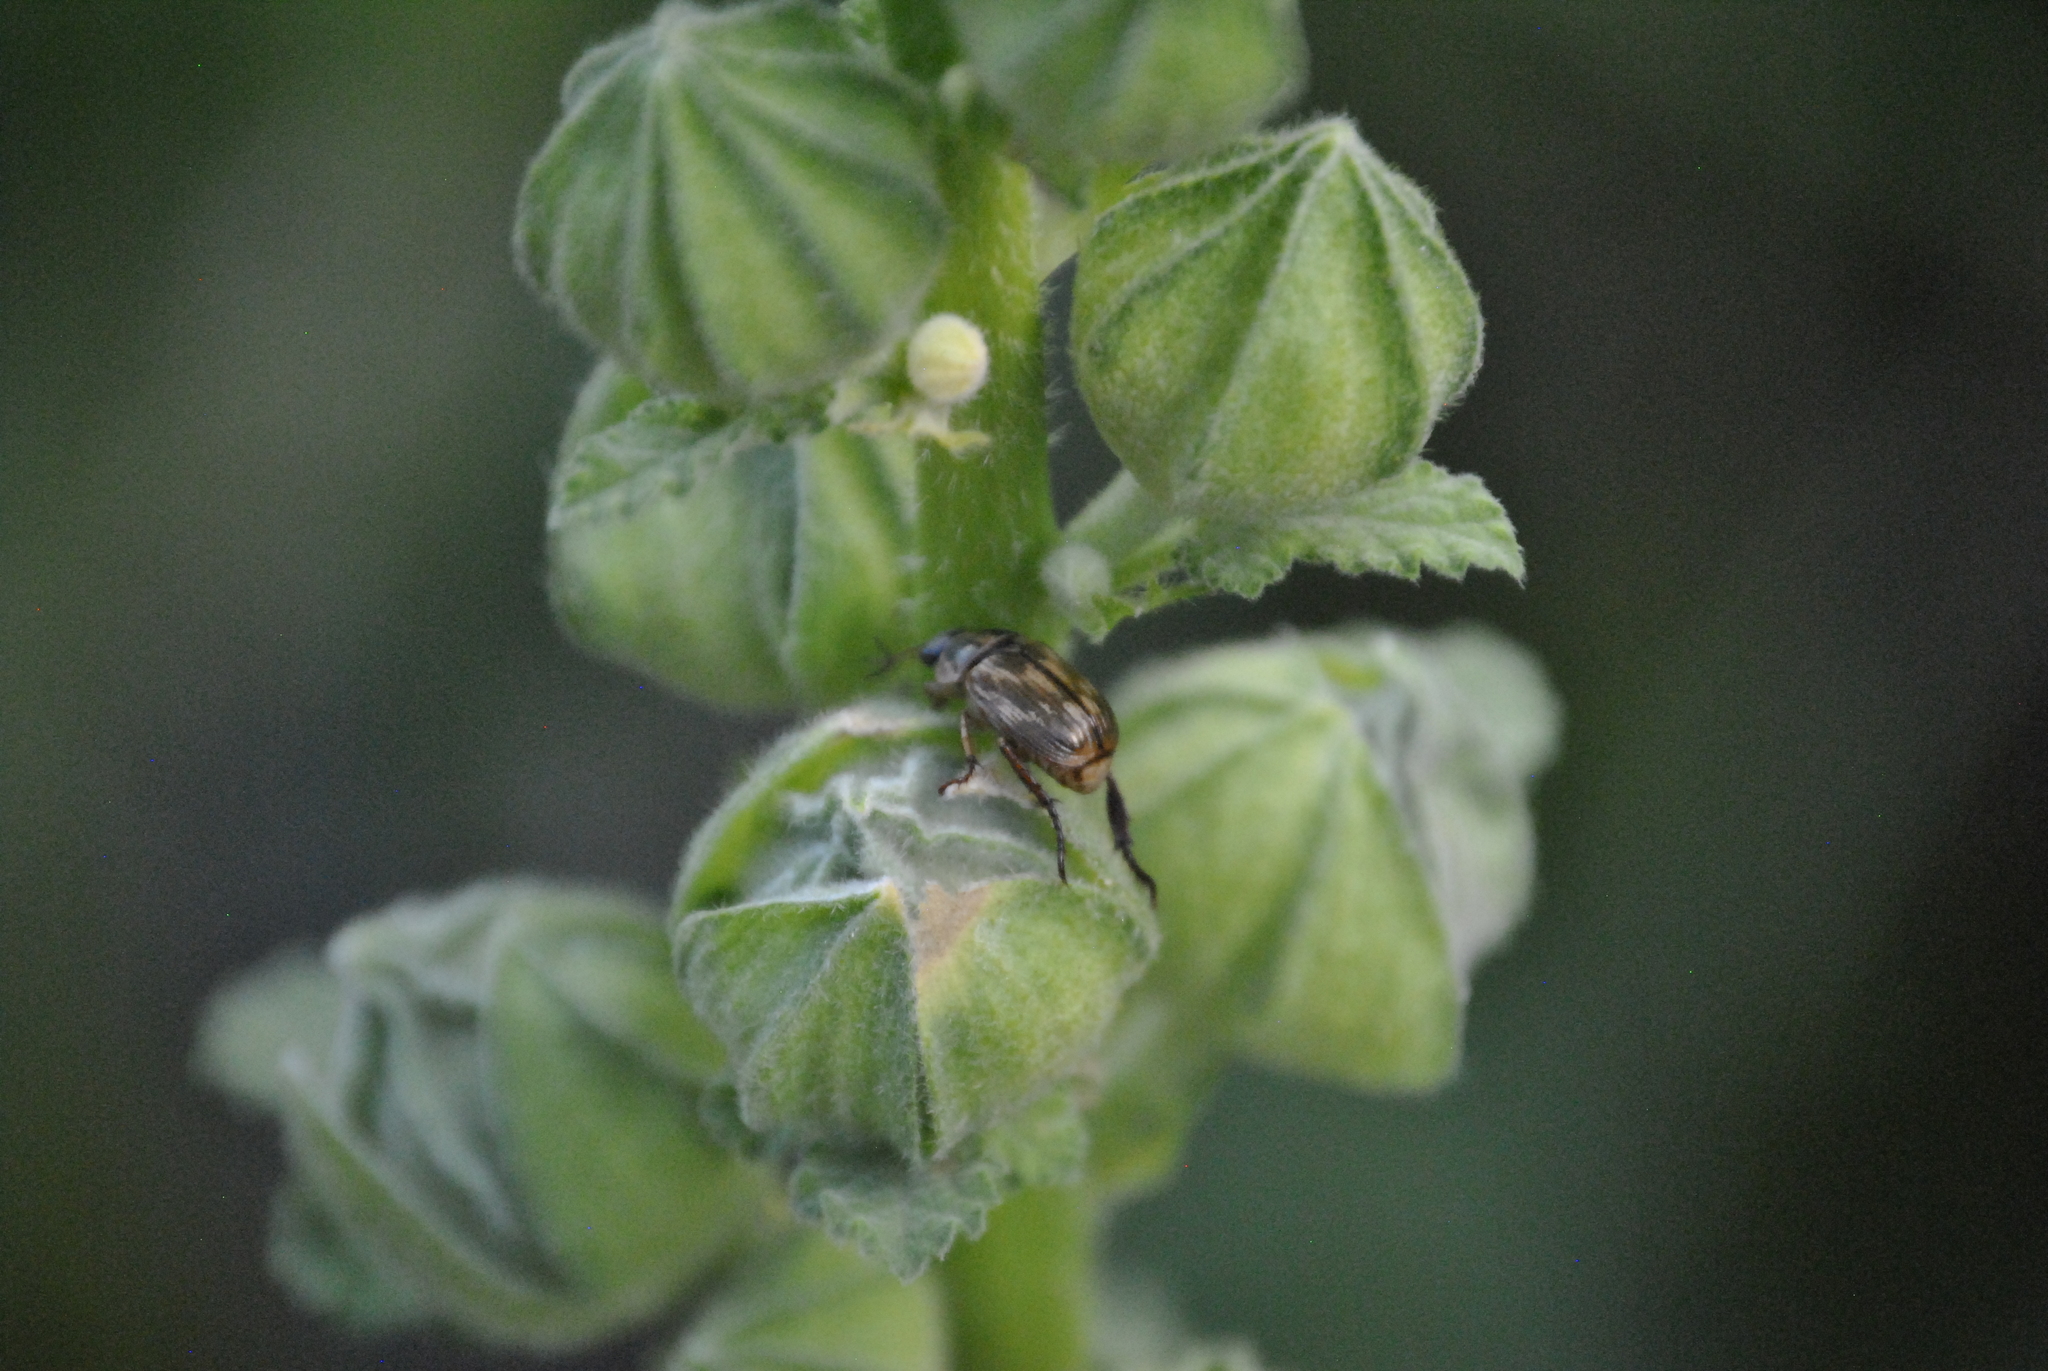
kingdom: Animalia
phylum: Arthropoda
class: Insecta
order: Coleoptera
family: Scarabaeidae
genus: Exomala
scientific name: Exomala orientalis
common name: Oriental beetle
